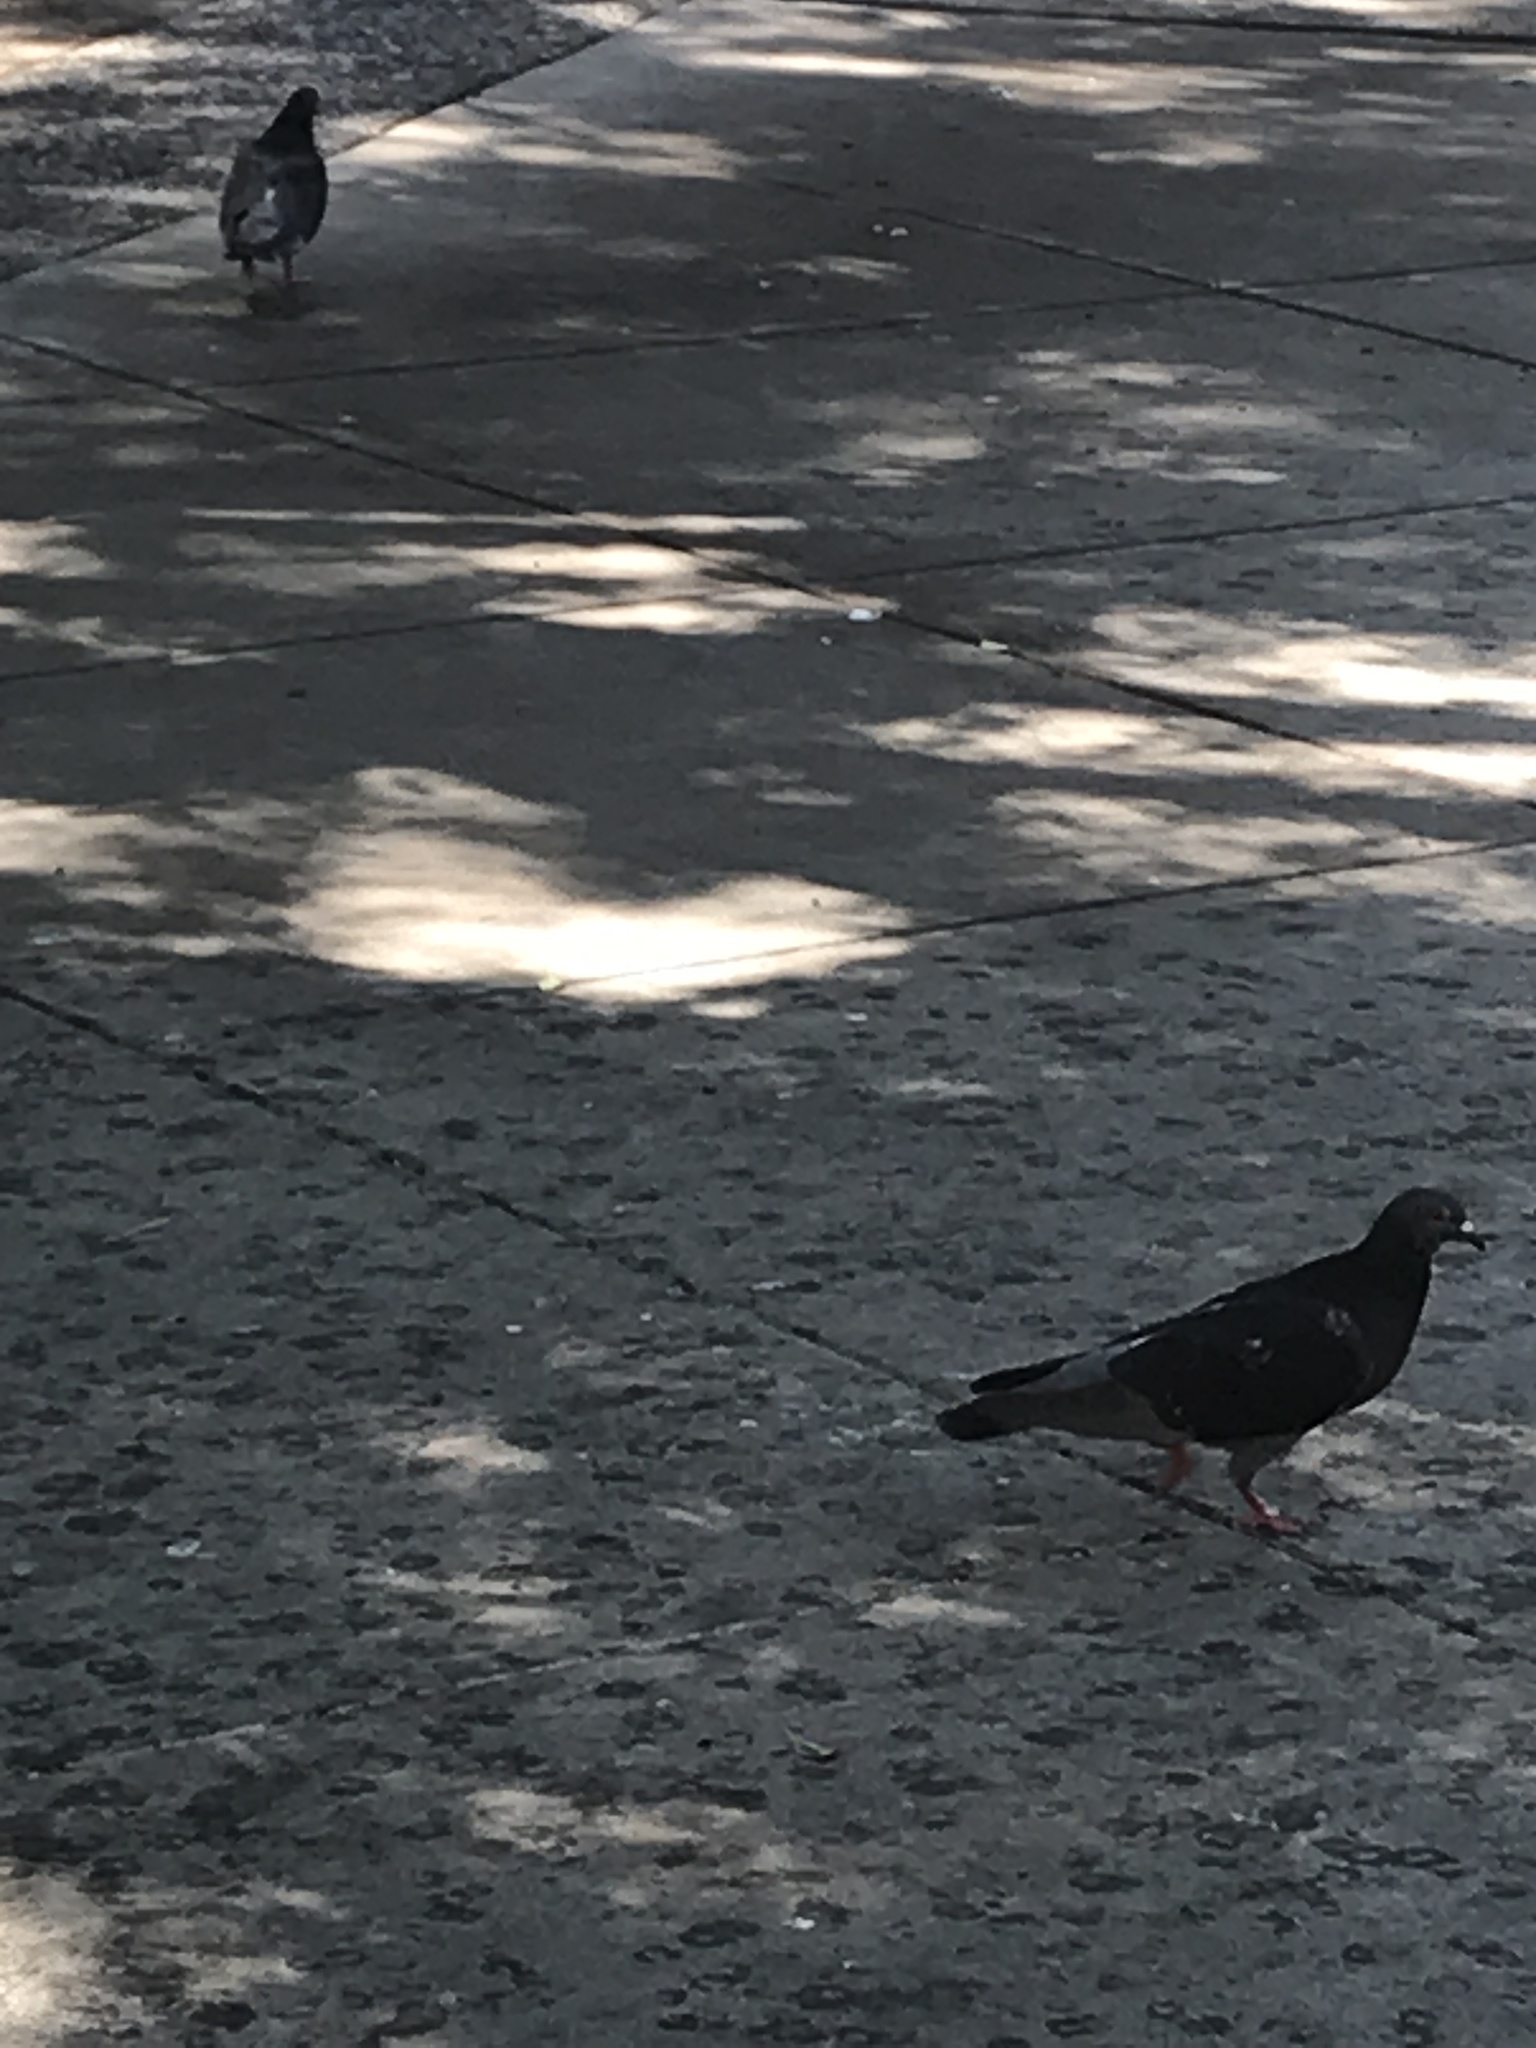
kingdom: Animalia
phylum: Chordata
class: Aves
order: Columbiformes
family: Columbidae
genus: Columba
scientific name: Columba livia
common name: Rock pigeon
